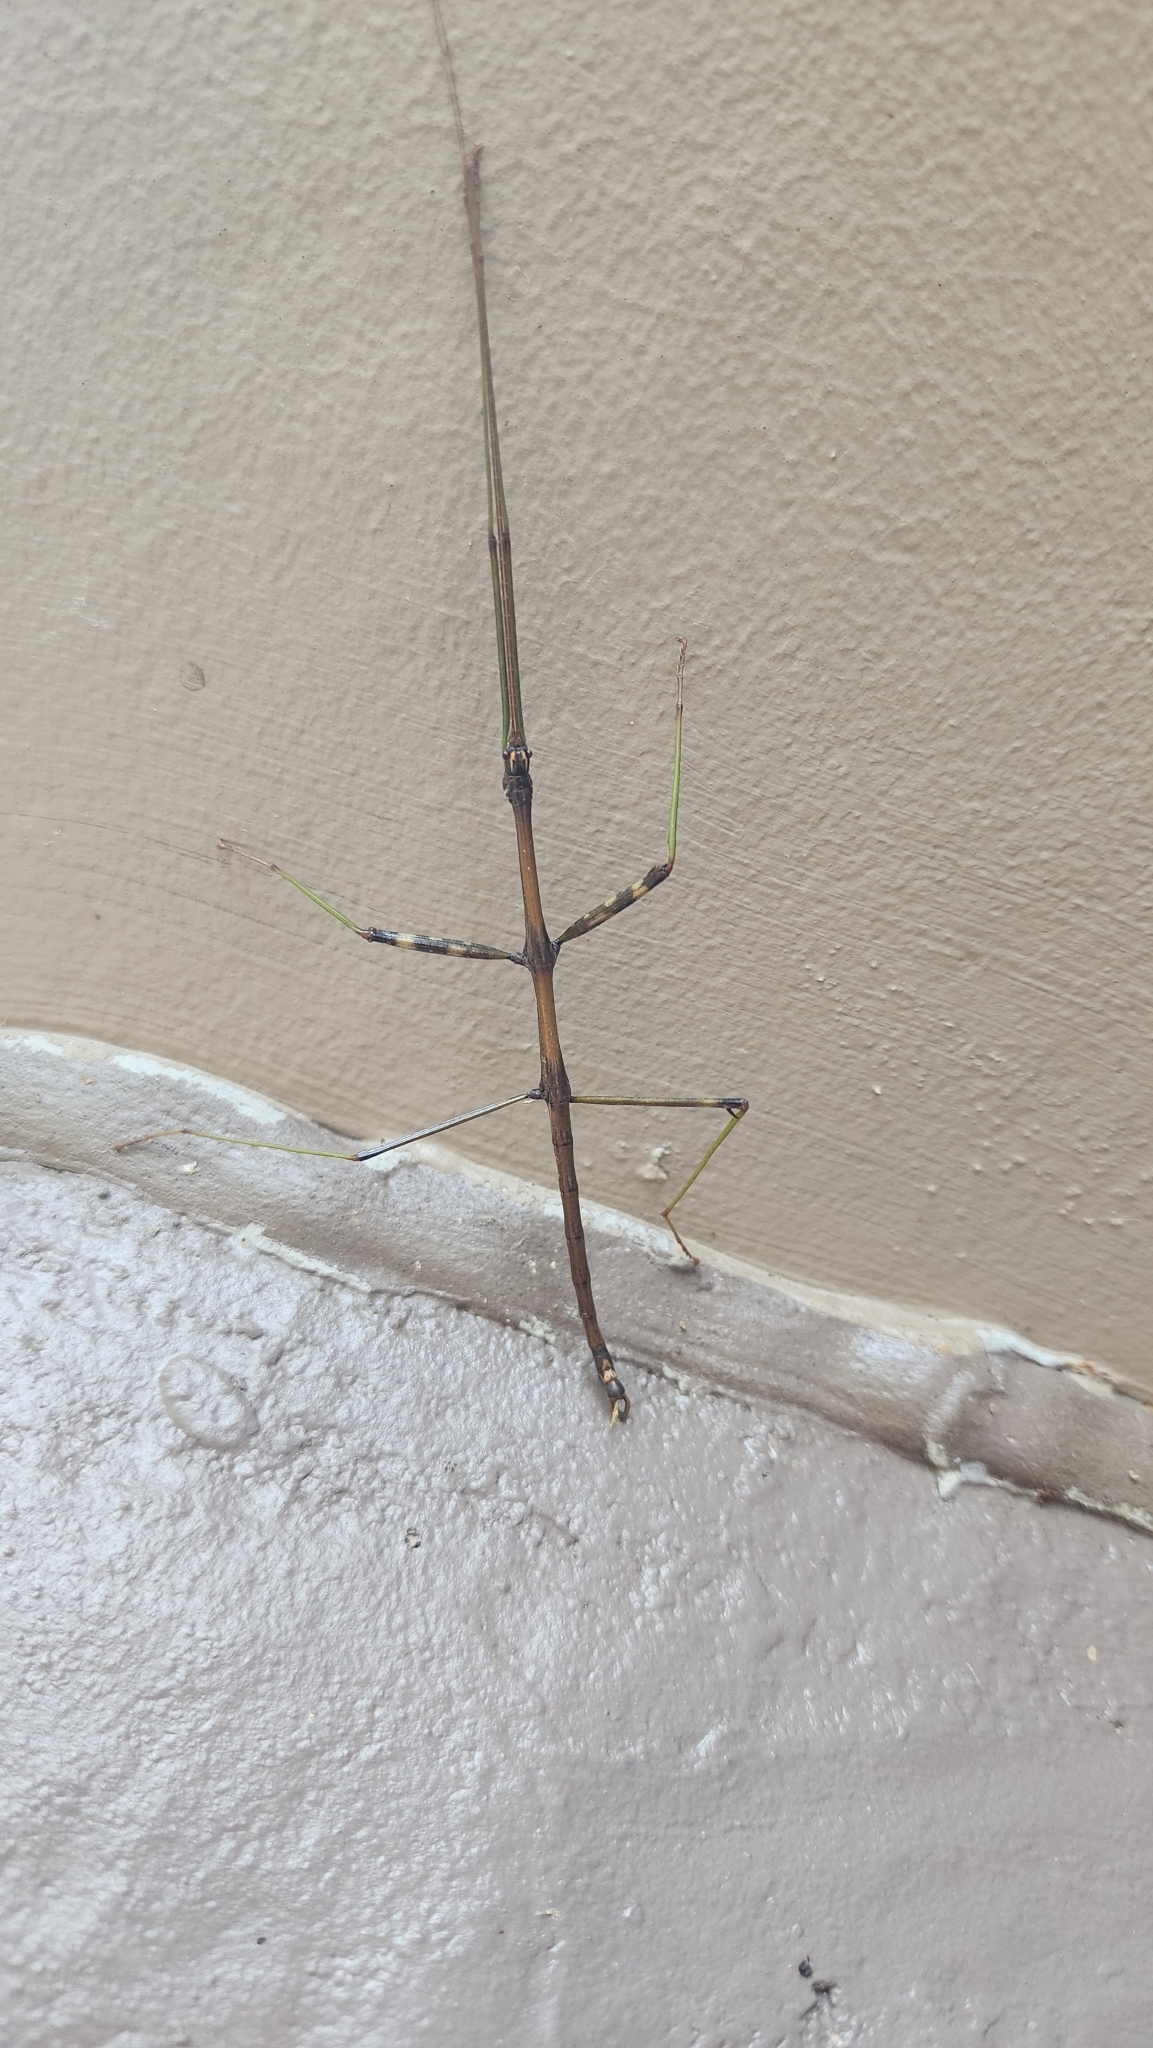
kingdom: Animalia
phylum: Arthropoda
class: Insecta
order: Phasmida
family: Diapheromeridae
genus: Diapheromera
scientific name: Diapheromera femorata
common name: Common american walkingstick
